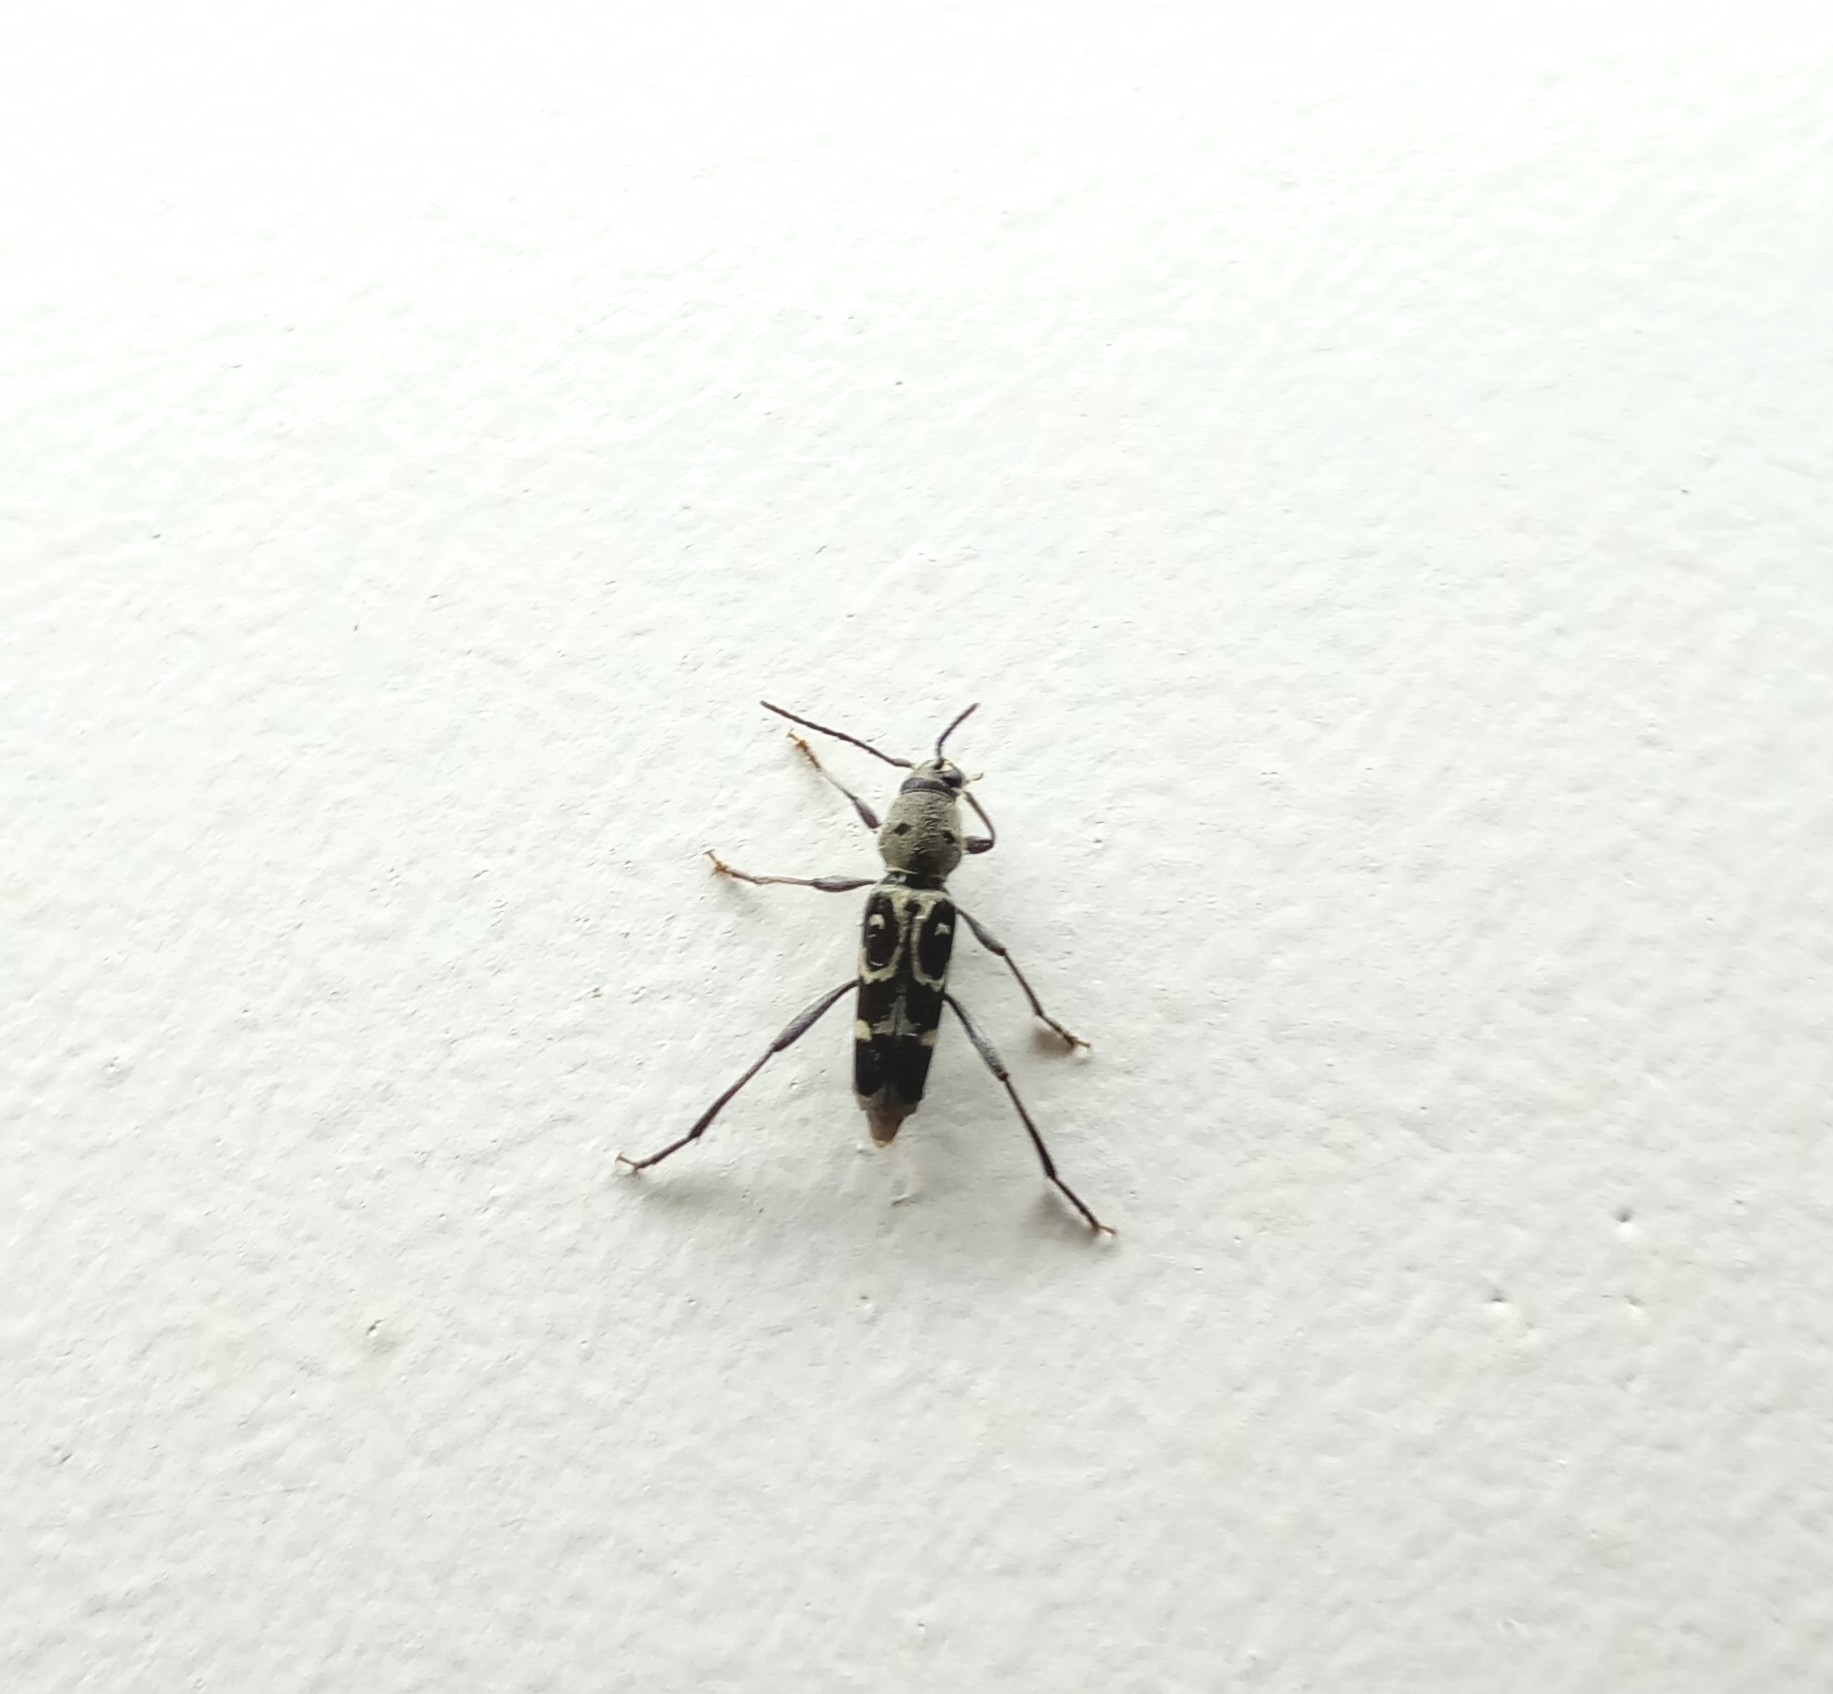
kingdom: Animalia
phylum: Arthropoda
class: Insecta
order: Coleoptera
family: Cerambycidae
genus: Xylotrechus
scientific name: Xylotrechus smei
